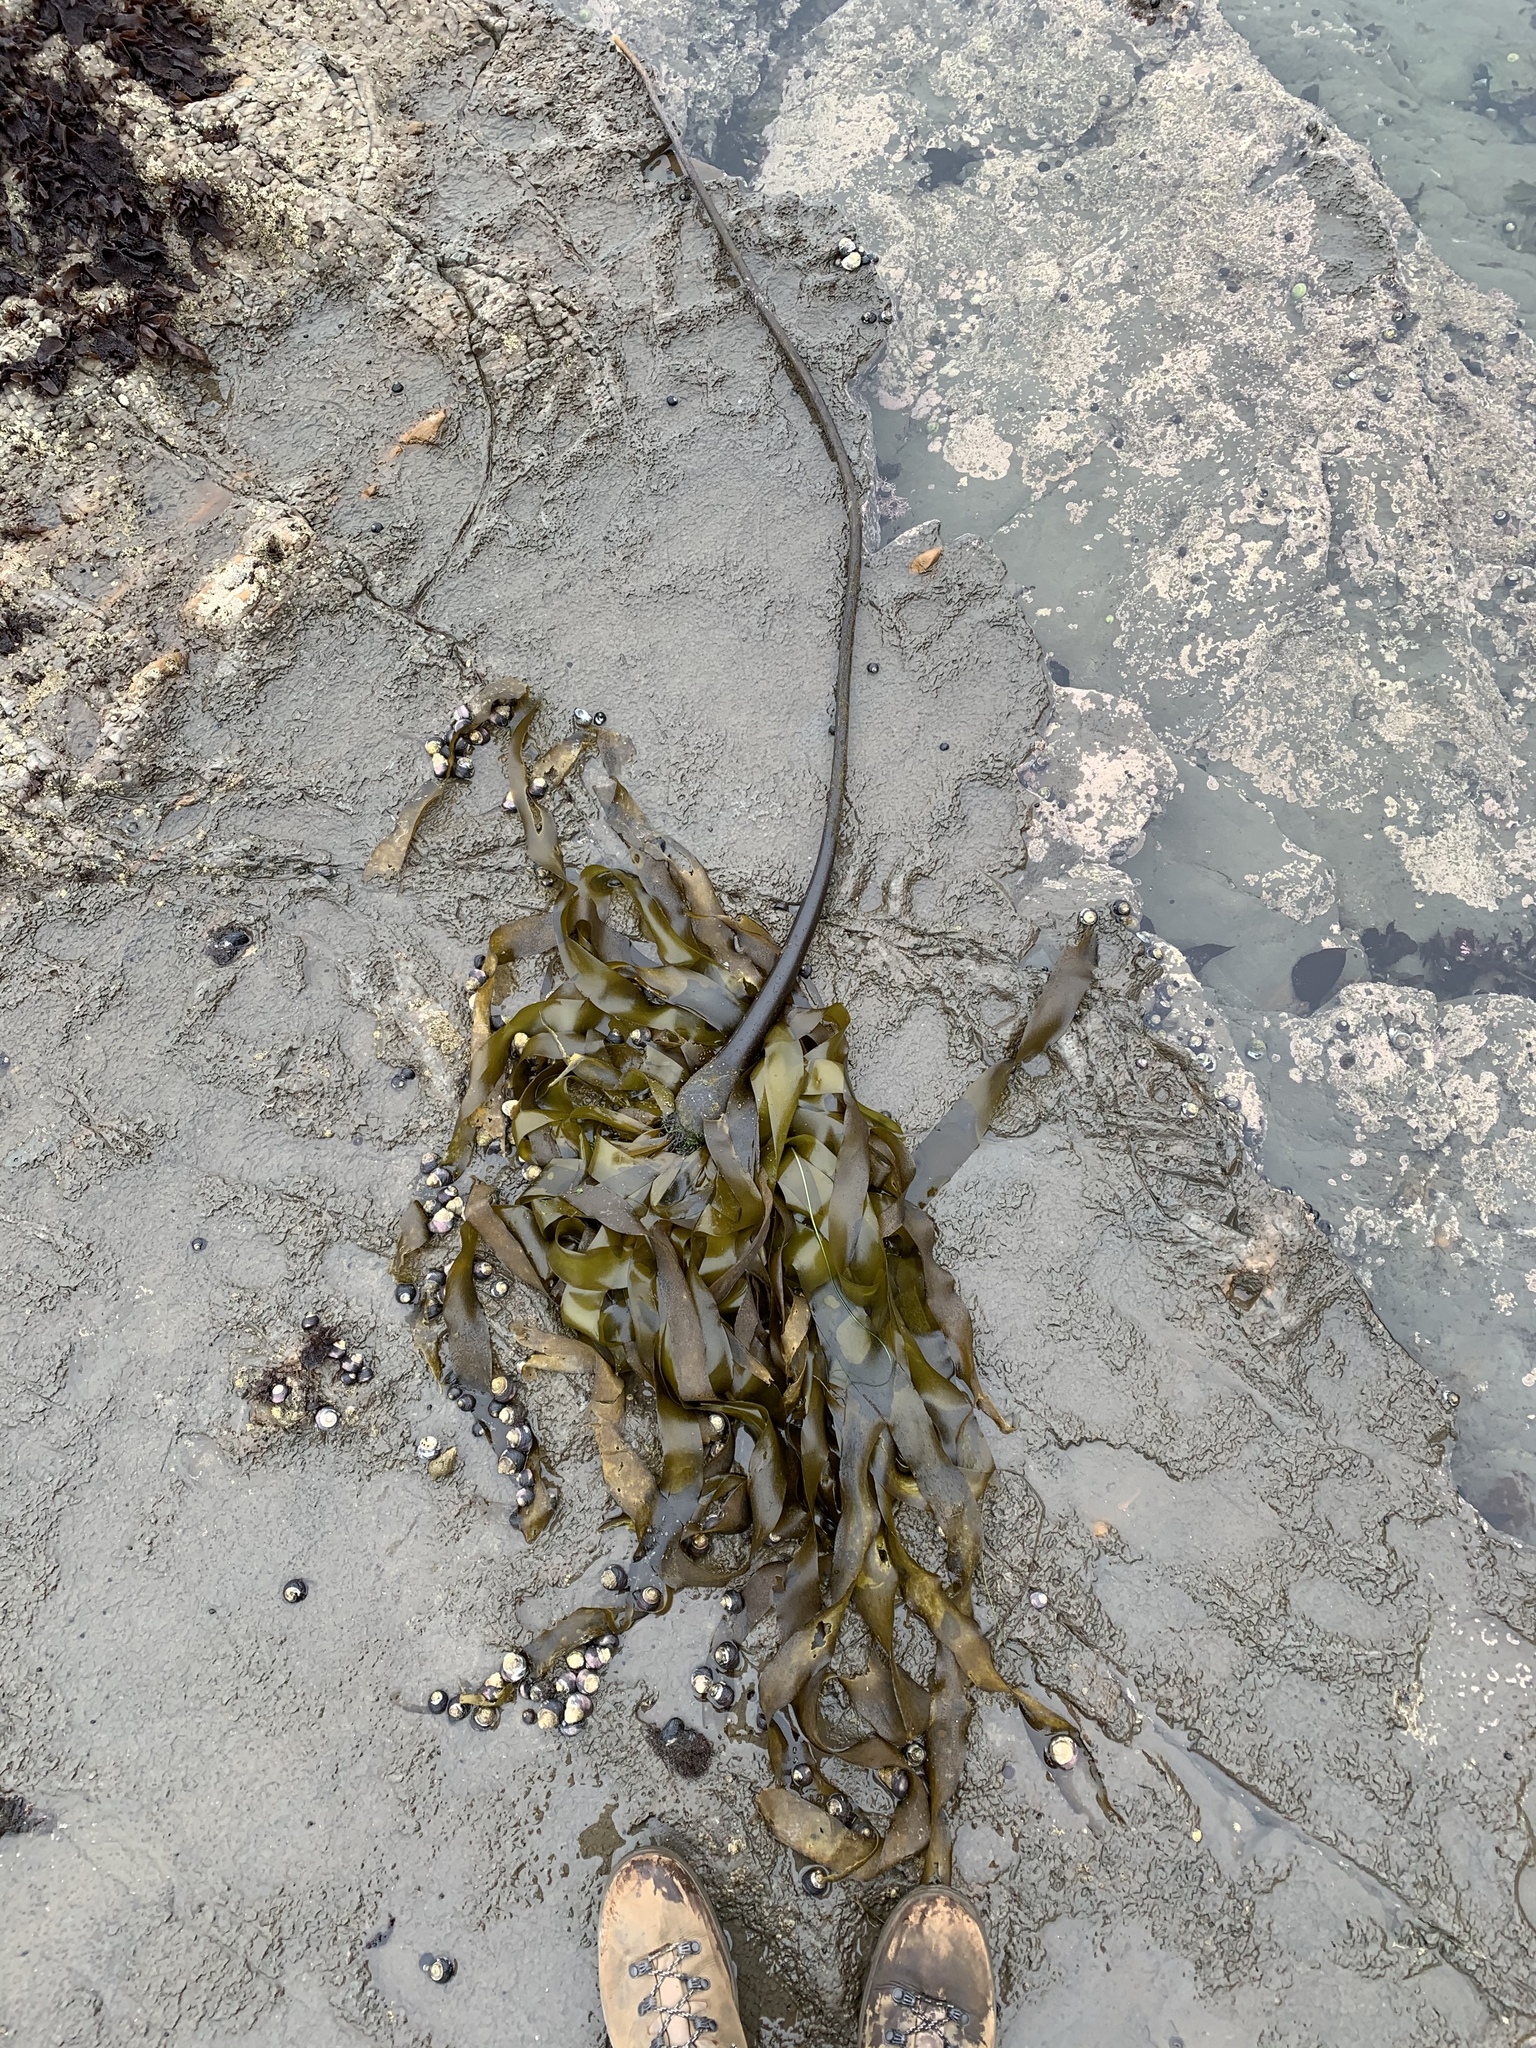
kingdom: Chromista
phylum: Ochrophyta
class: Phaeophyceae
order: Laminariales
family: Laminariaceae
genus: Nereocystis
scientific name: Nereocystis luetkeana
